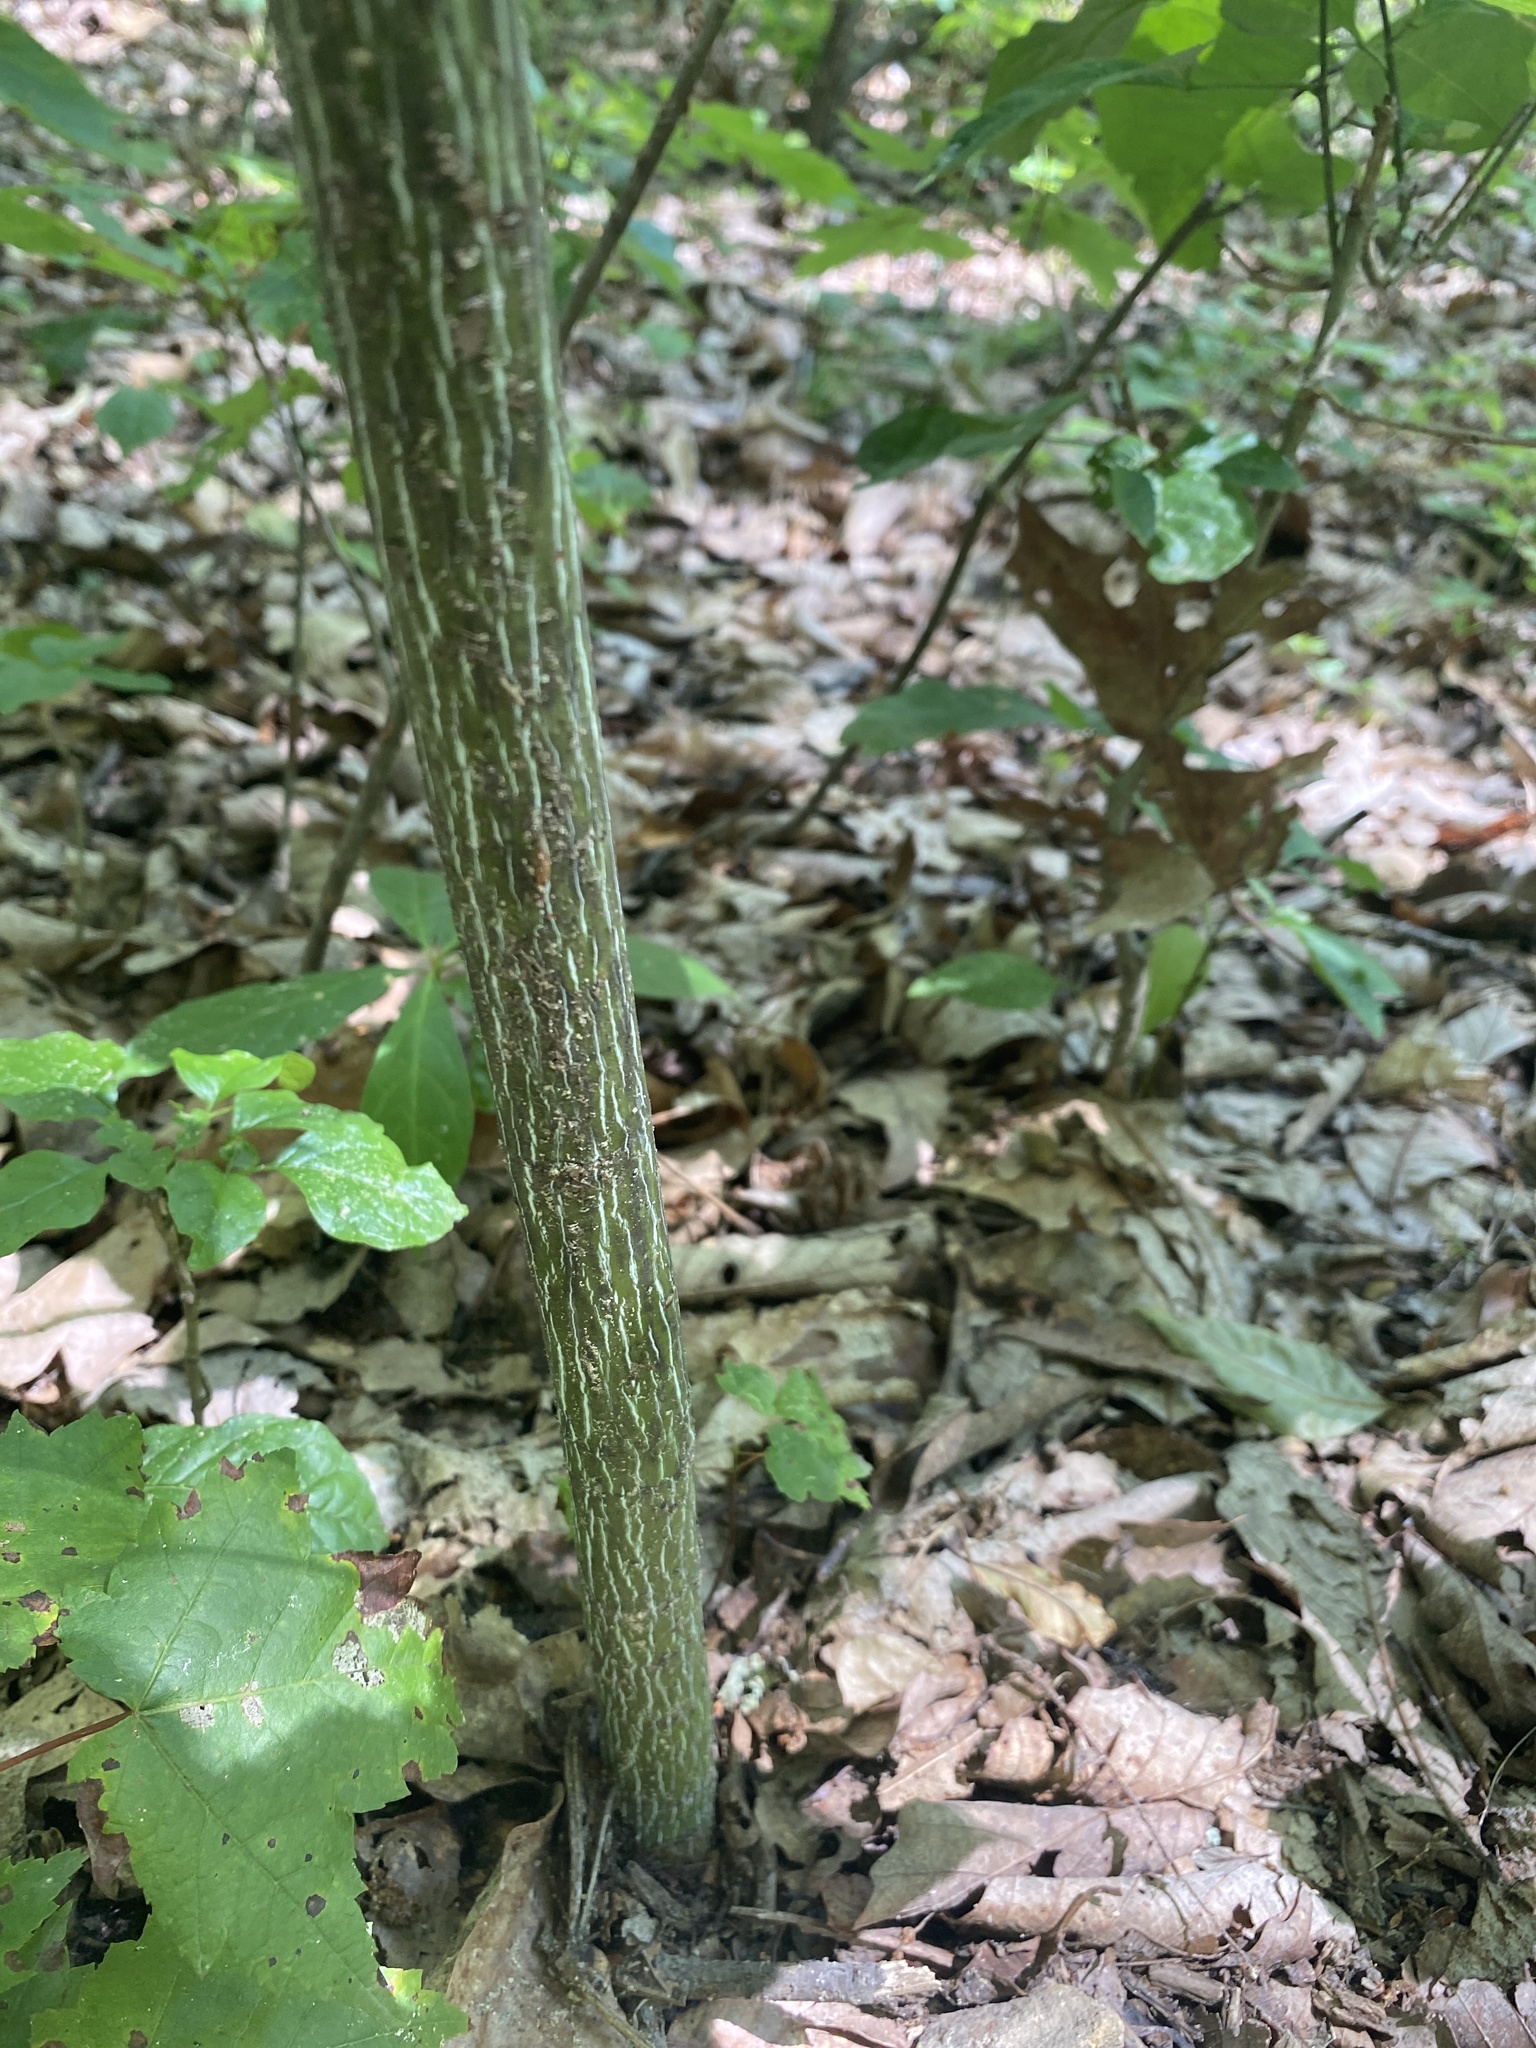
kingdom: Plantae
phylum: Tracheophyta
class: Magnoliopsida
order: Sapindales
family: Sapindaceae
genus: Acer
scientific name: Acer pensylvanicum
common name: Moosewood
